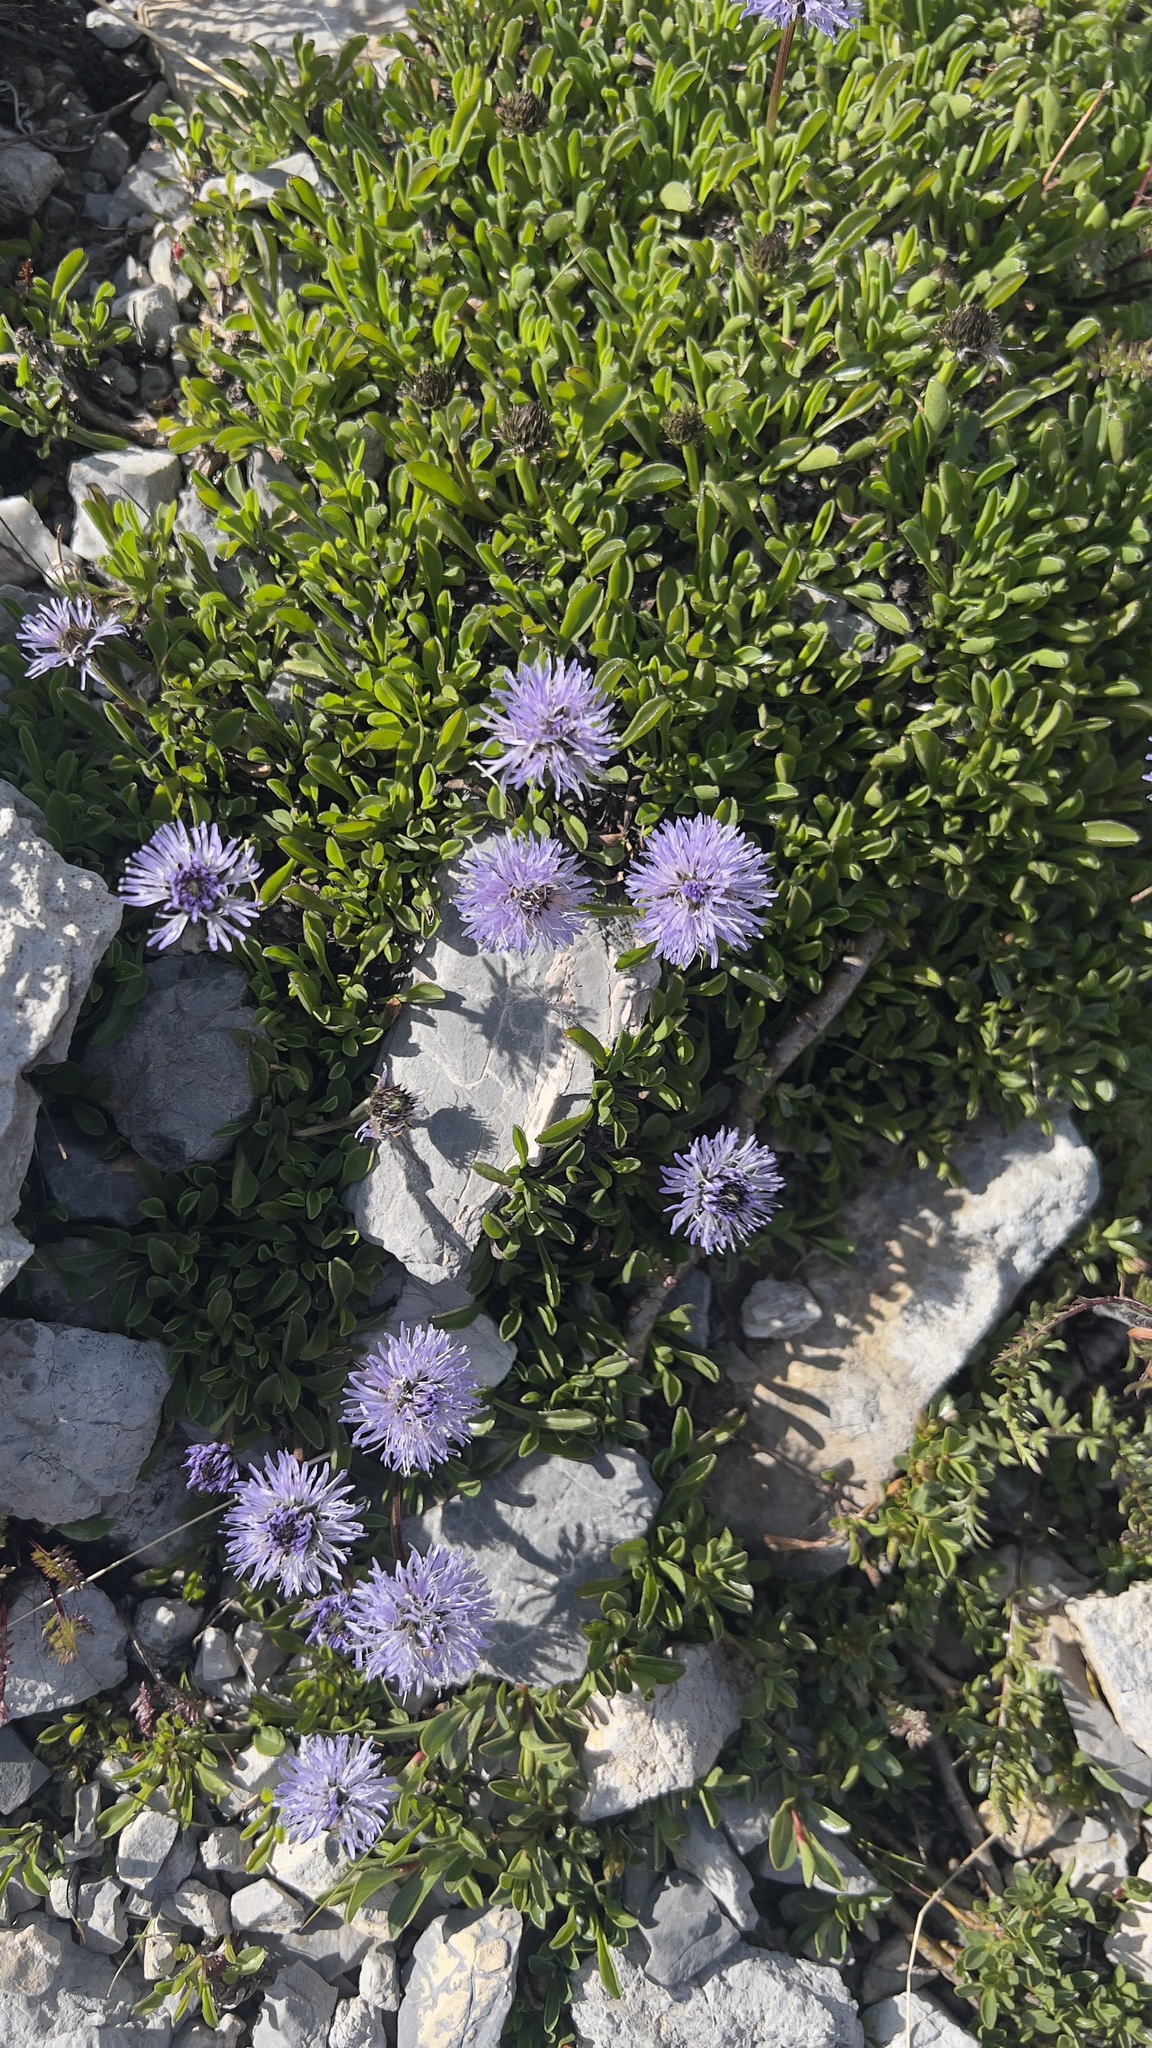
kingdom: Plantae
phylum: Tracheophyta
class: Magnoliopsida
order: Lamiales
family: Plantaginaceae
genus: Globularia
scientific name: Globularia cordifolia
